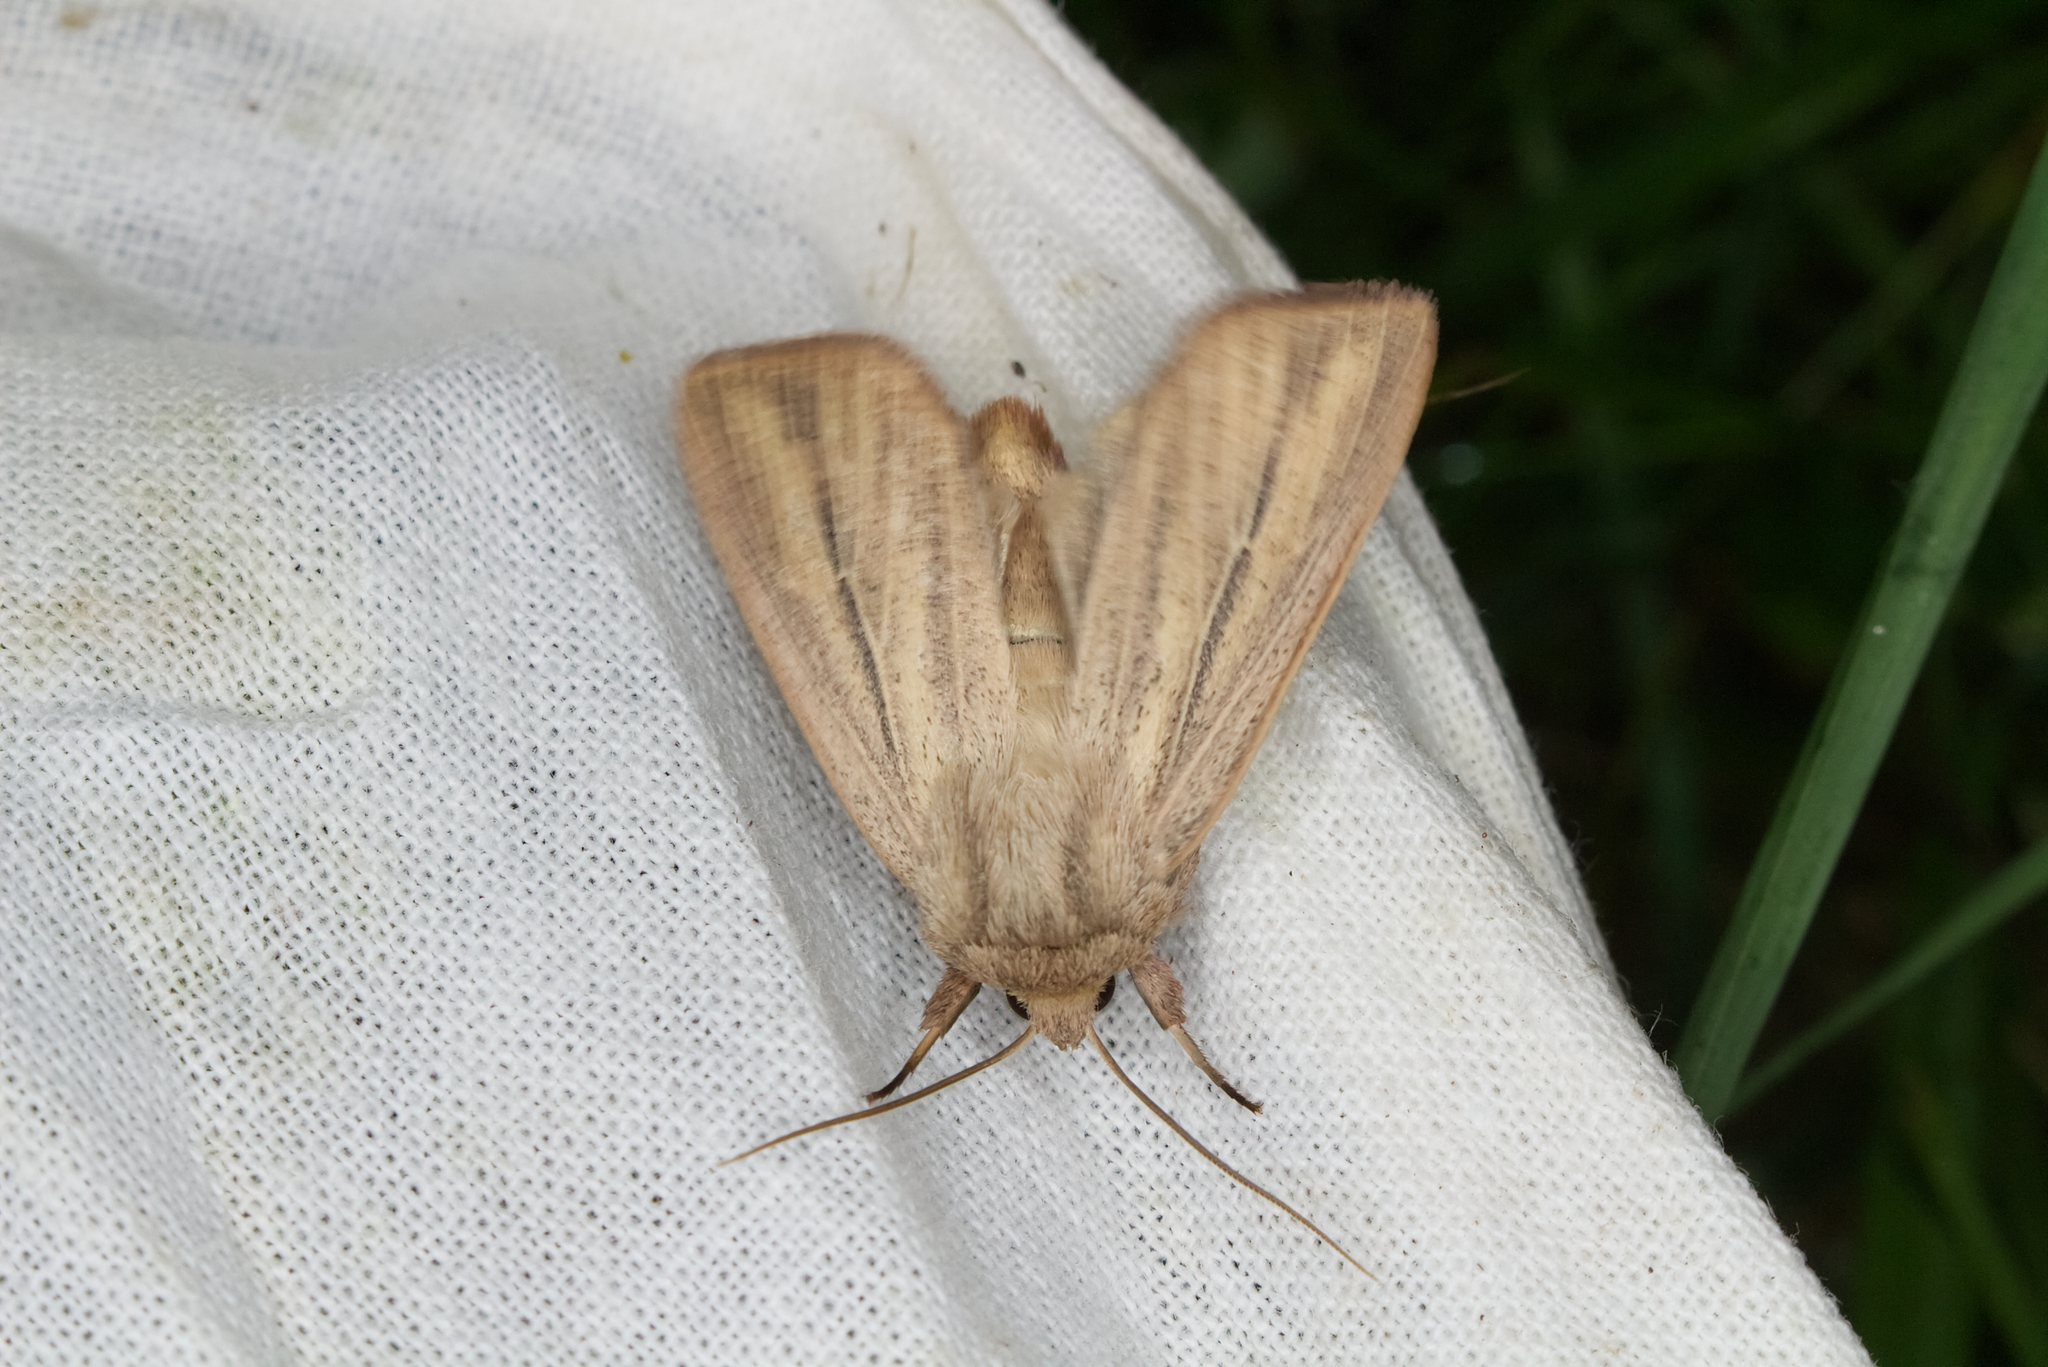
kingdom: Animalia
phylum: Arthropoda
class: Insecta
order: Lepidoptera
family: Noctuidae
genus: Mythimna
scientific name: Mythimna pudorina
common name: Striped wainscot
